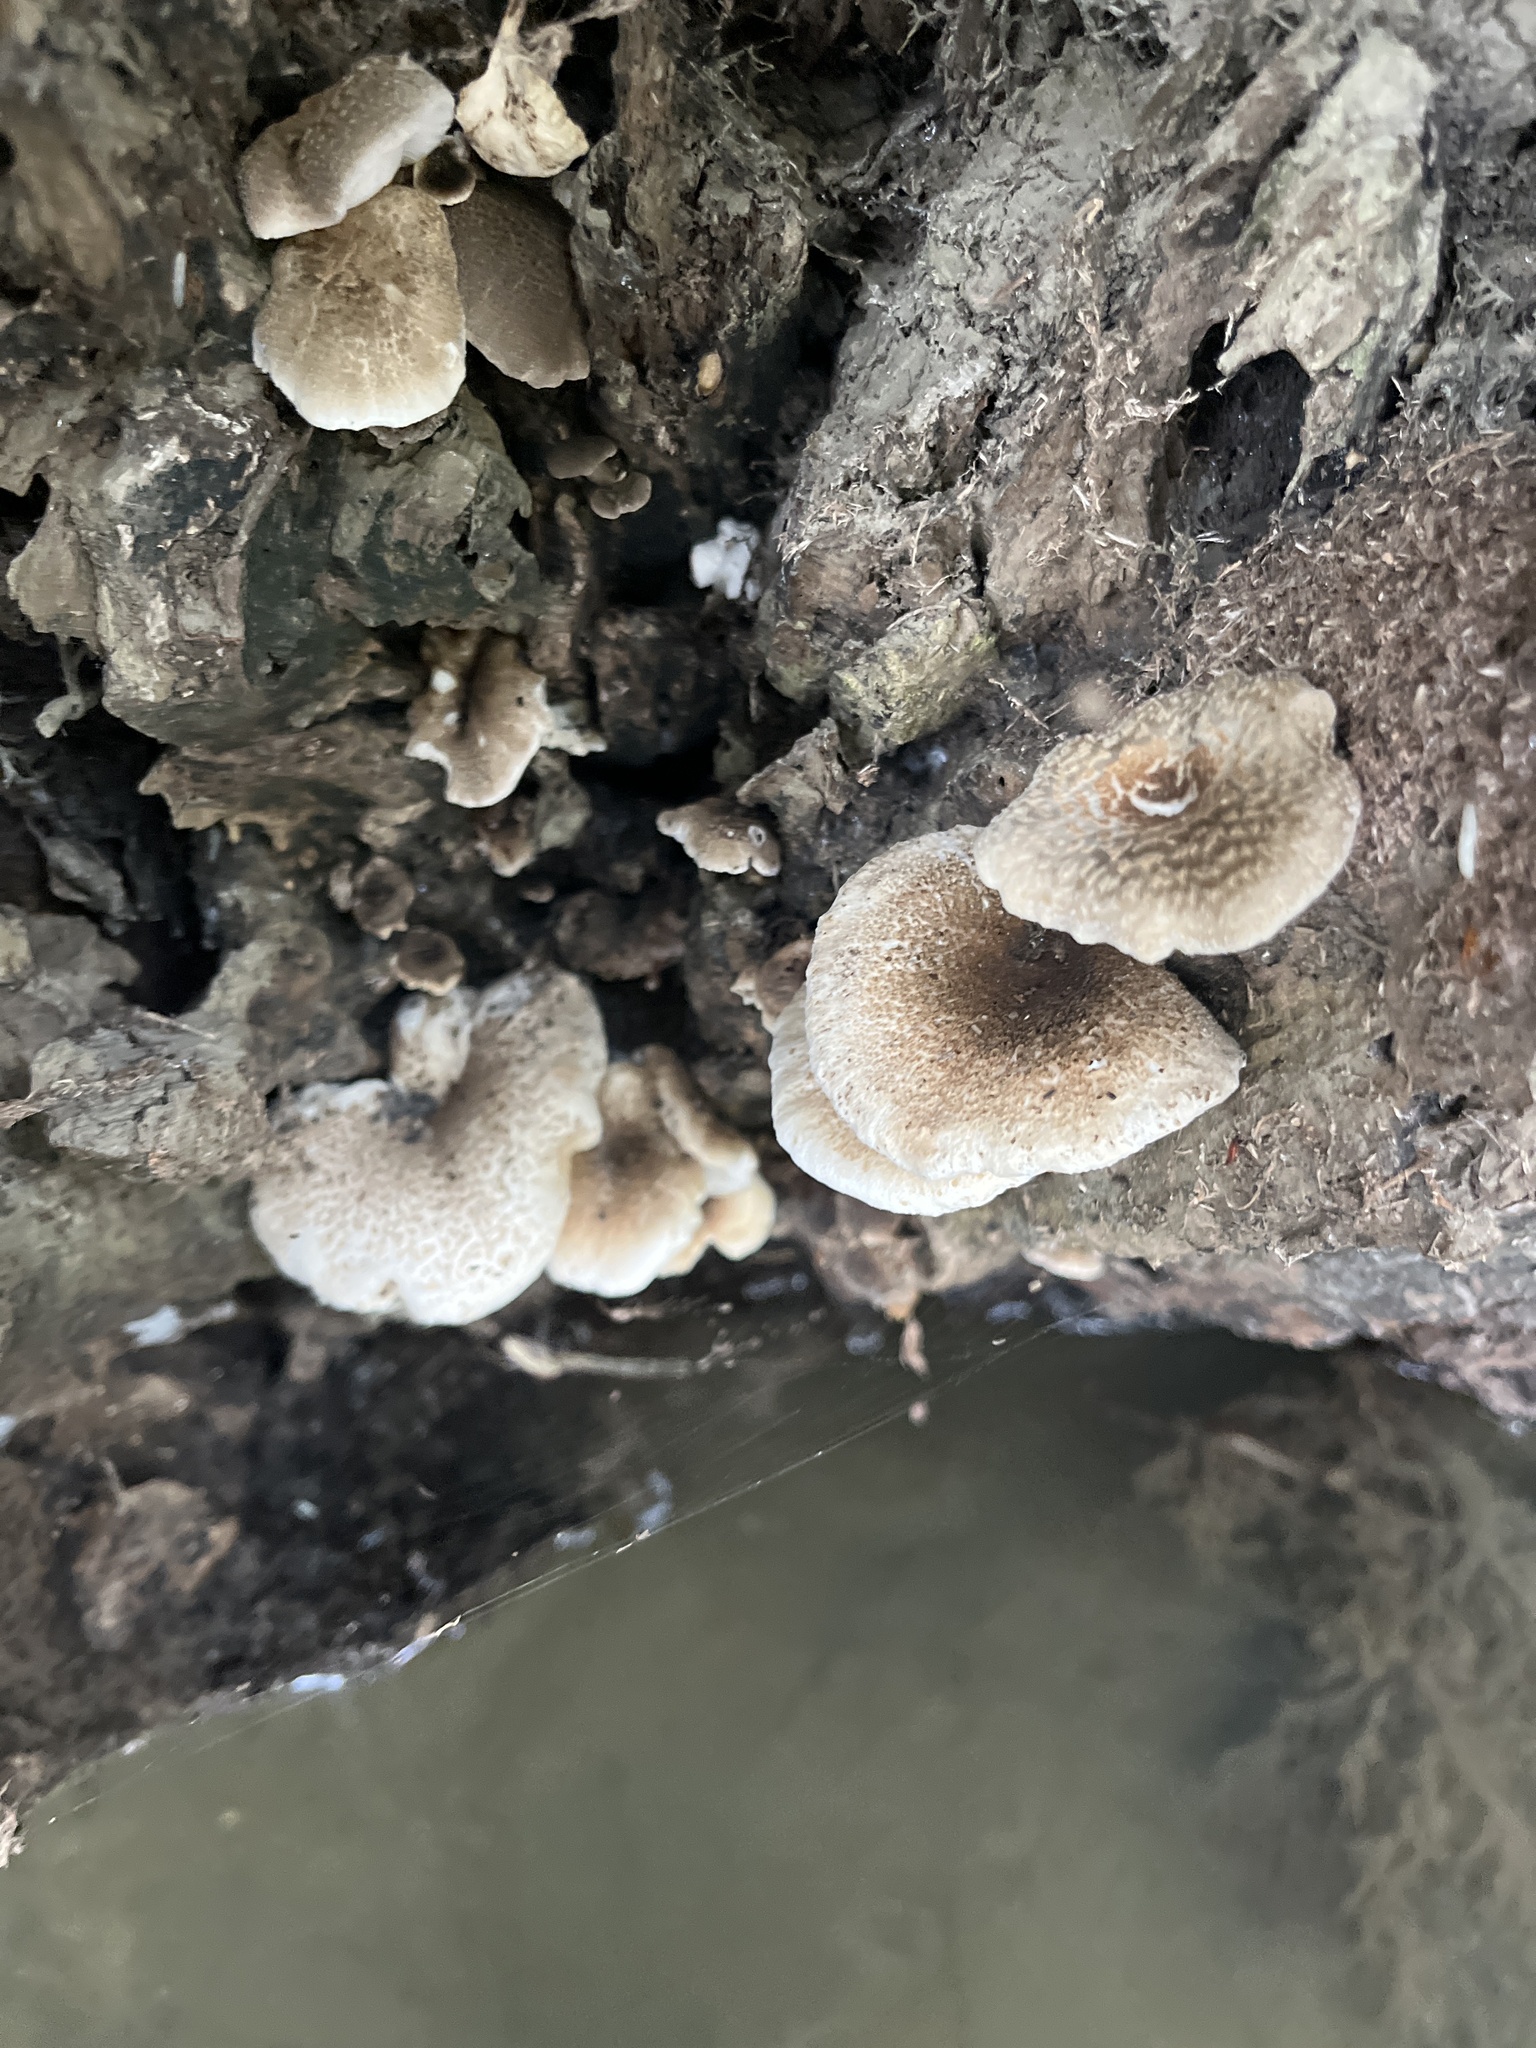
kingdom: Fungi
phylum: Basidiomycota
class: Agaricomycetes
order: Polyporales
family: Polyporaceae
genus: Lentinus
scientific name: Lentinus tigrinus
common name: Tiger sawgill
